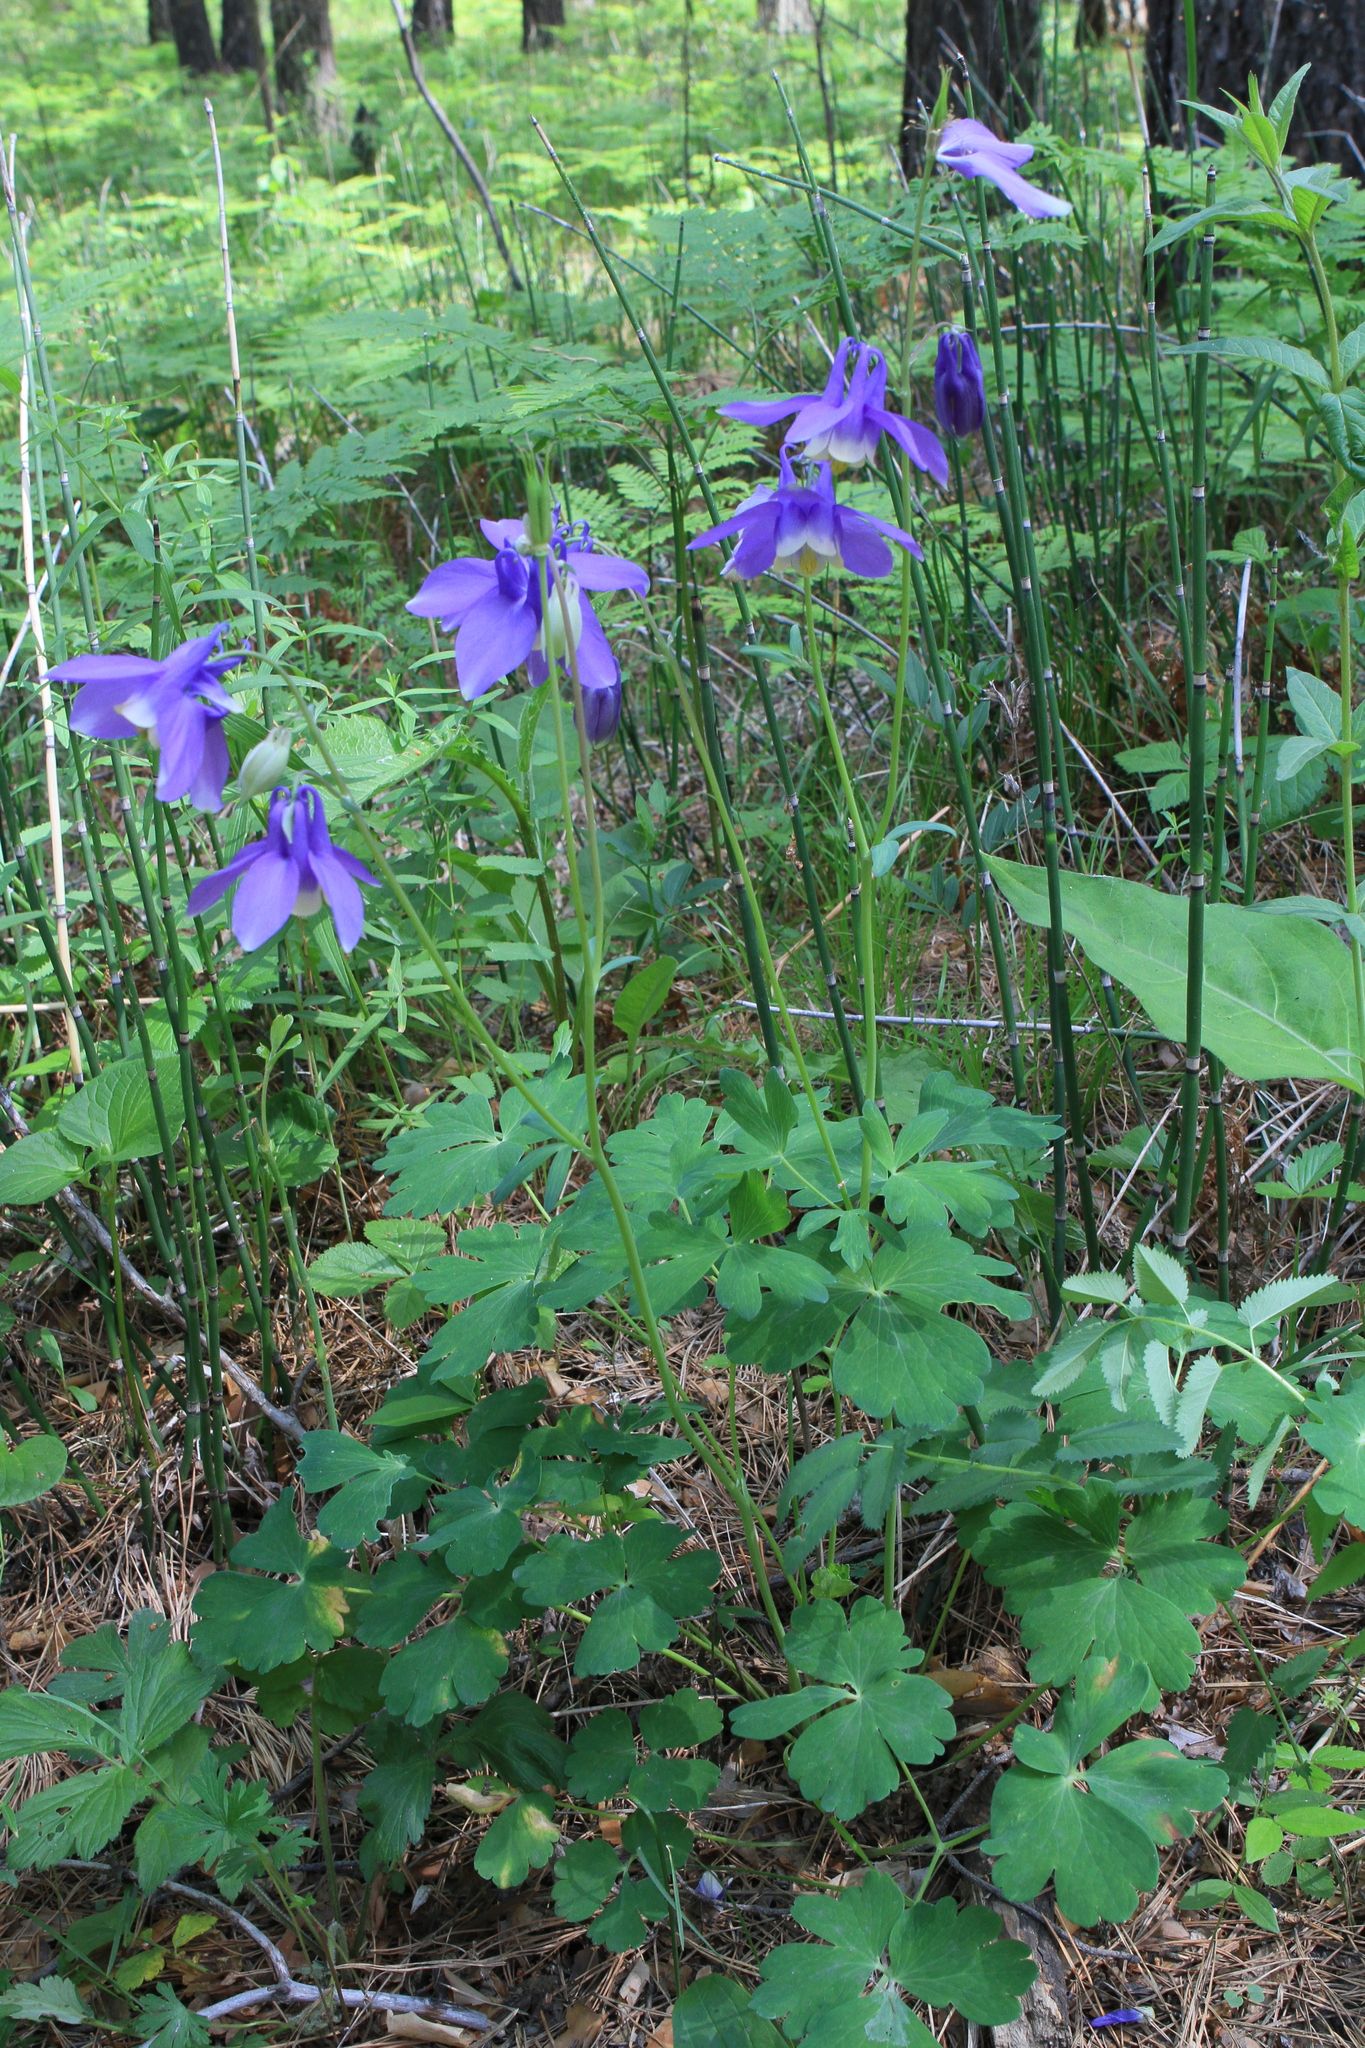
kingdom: Plantae
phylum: Tracheophyta
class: Magnoliopsida
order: Ranunculales
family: Ranunculaceae
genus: Aquilegia
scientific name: Aquilegia sibirica
